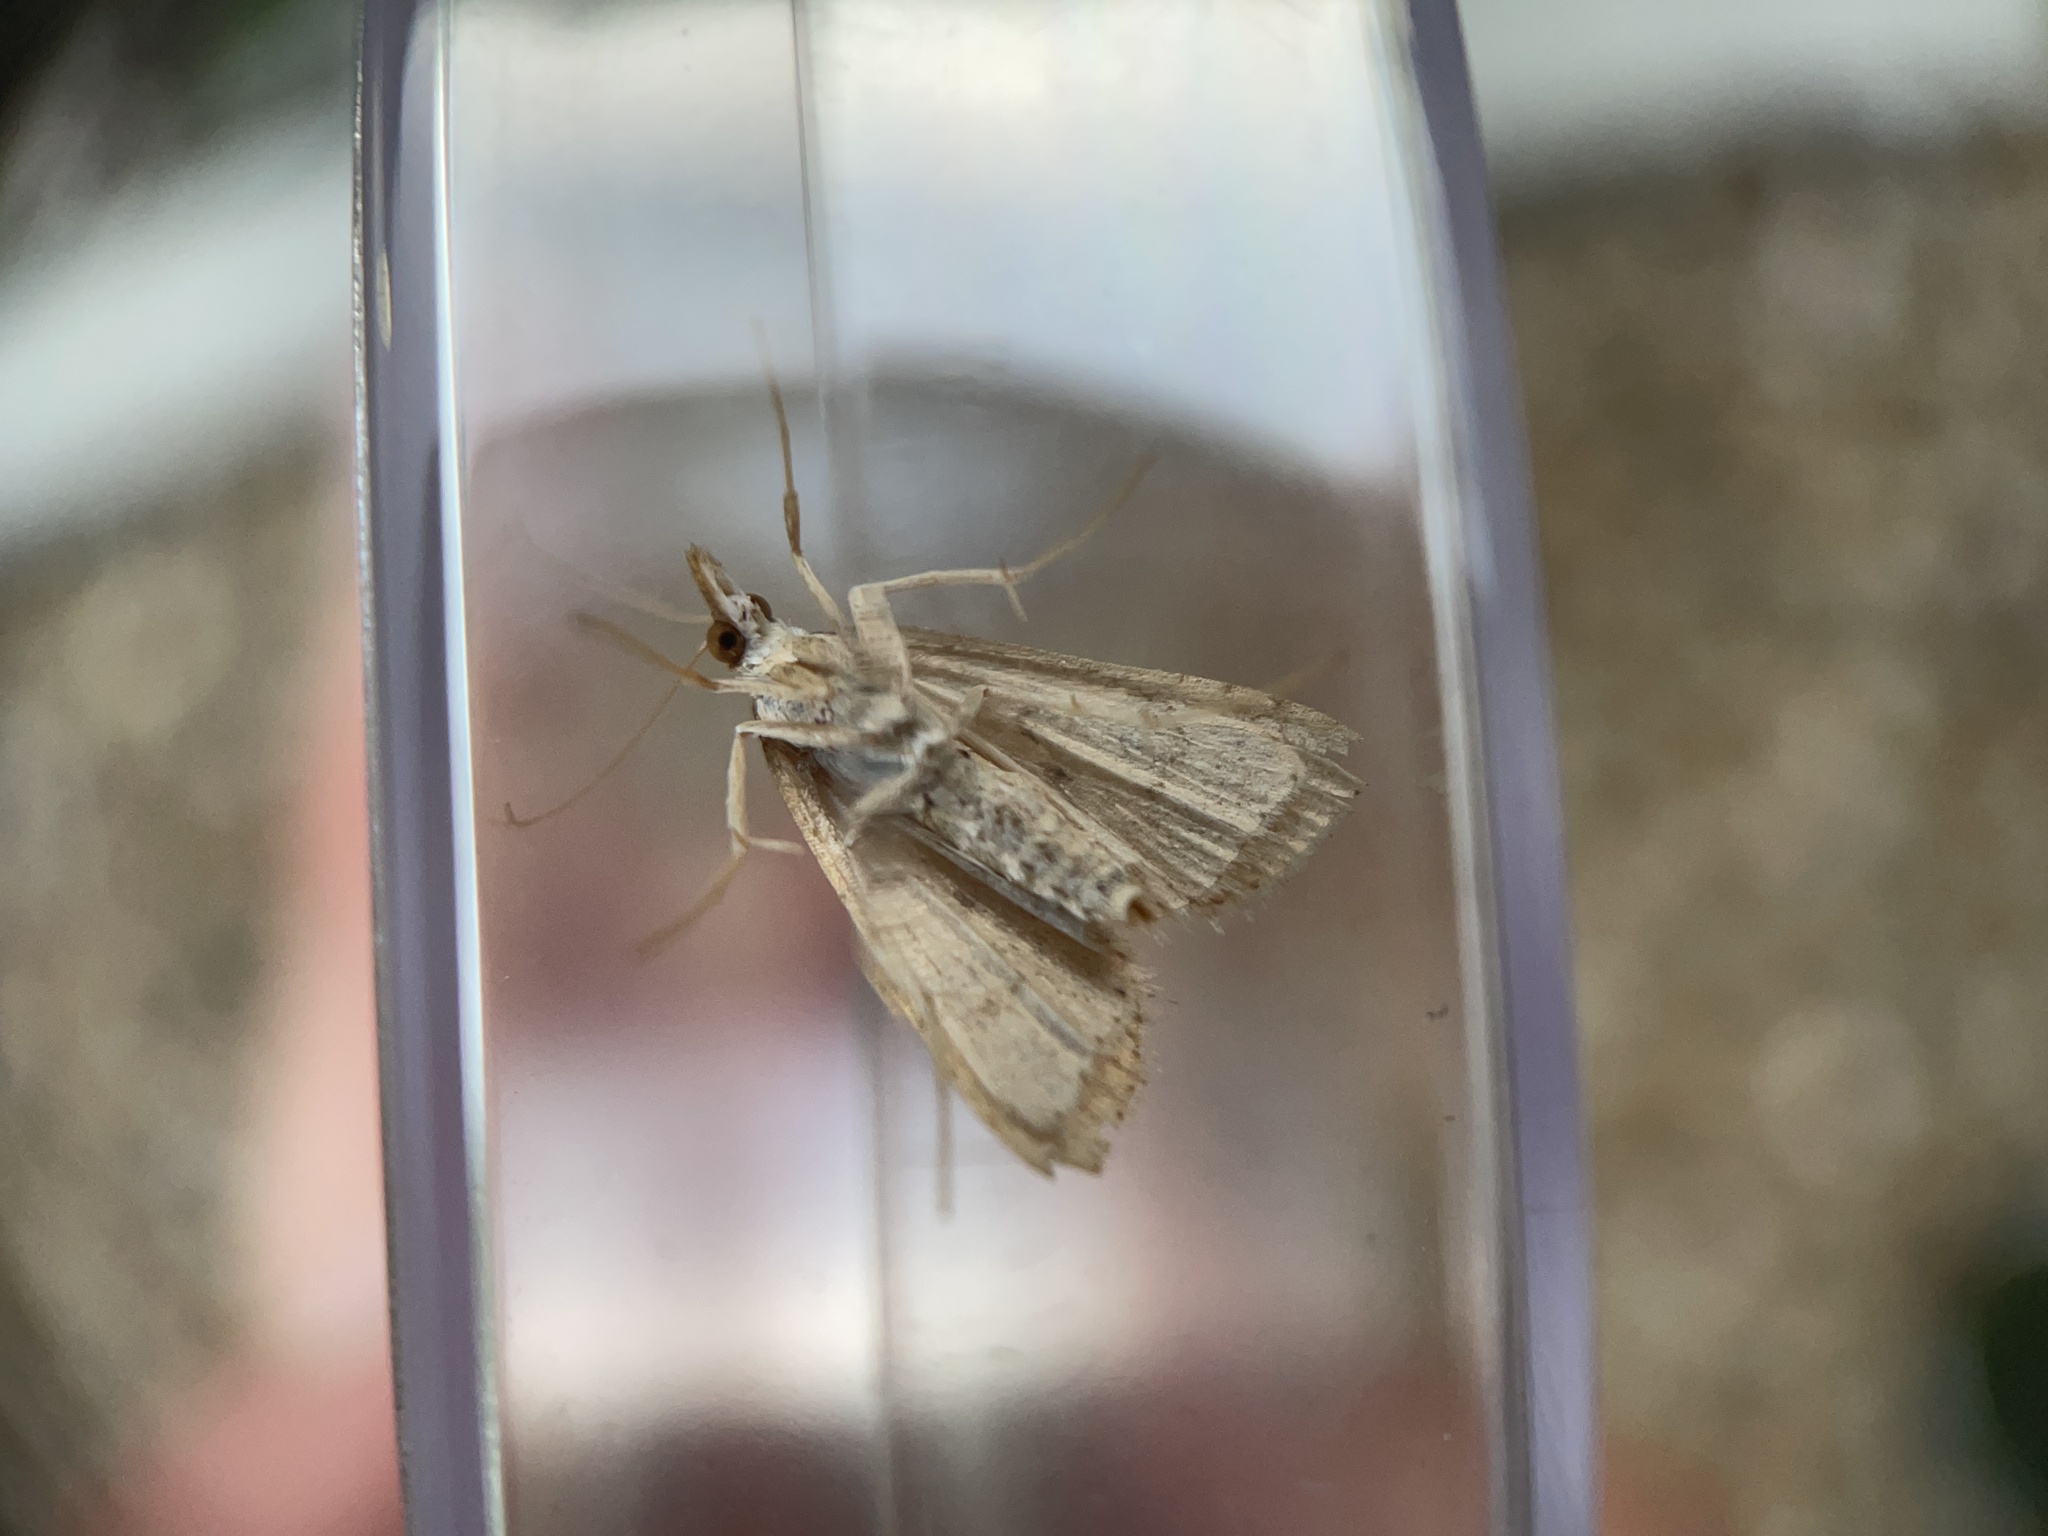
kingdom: Animalia
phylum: Arthropoda
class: Insecta
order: Lepidoptera
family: Crambidae
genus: Udea
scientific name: Udea rubigalis
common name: Celery leaftier moth
